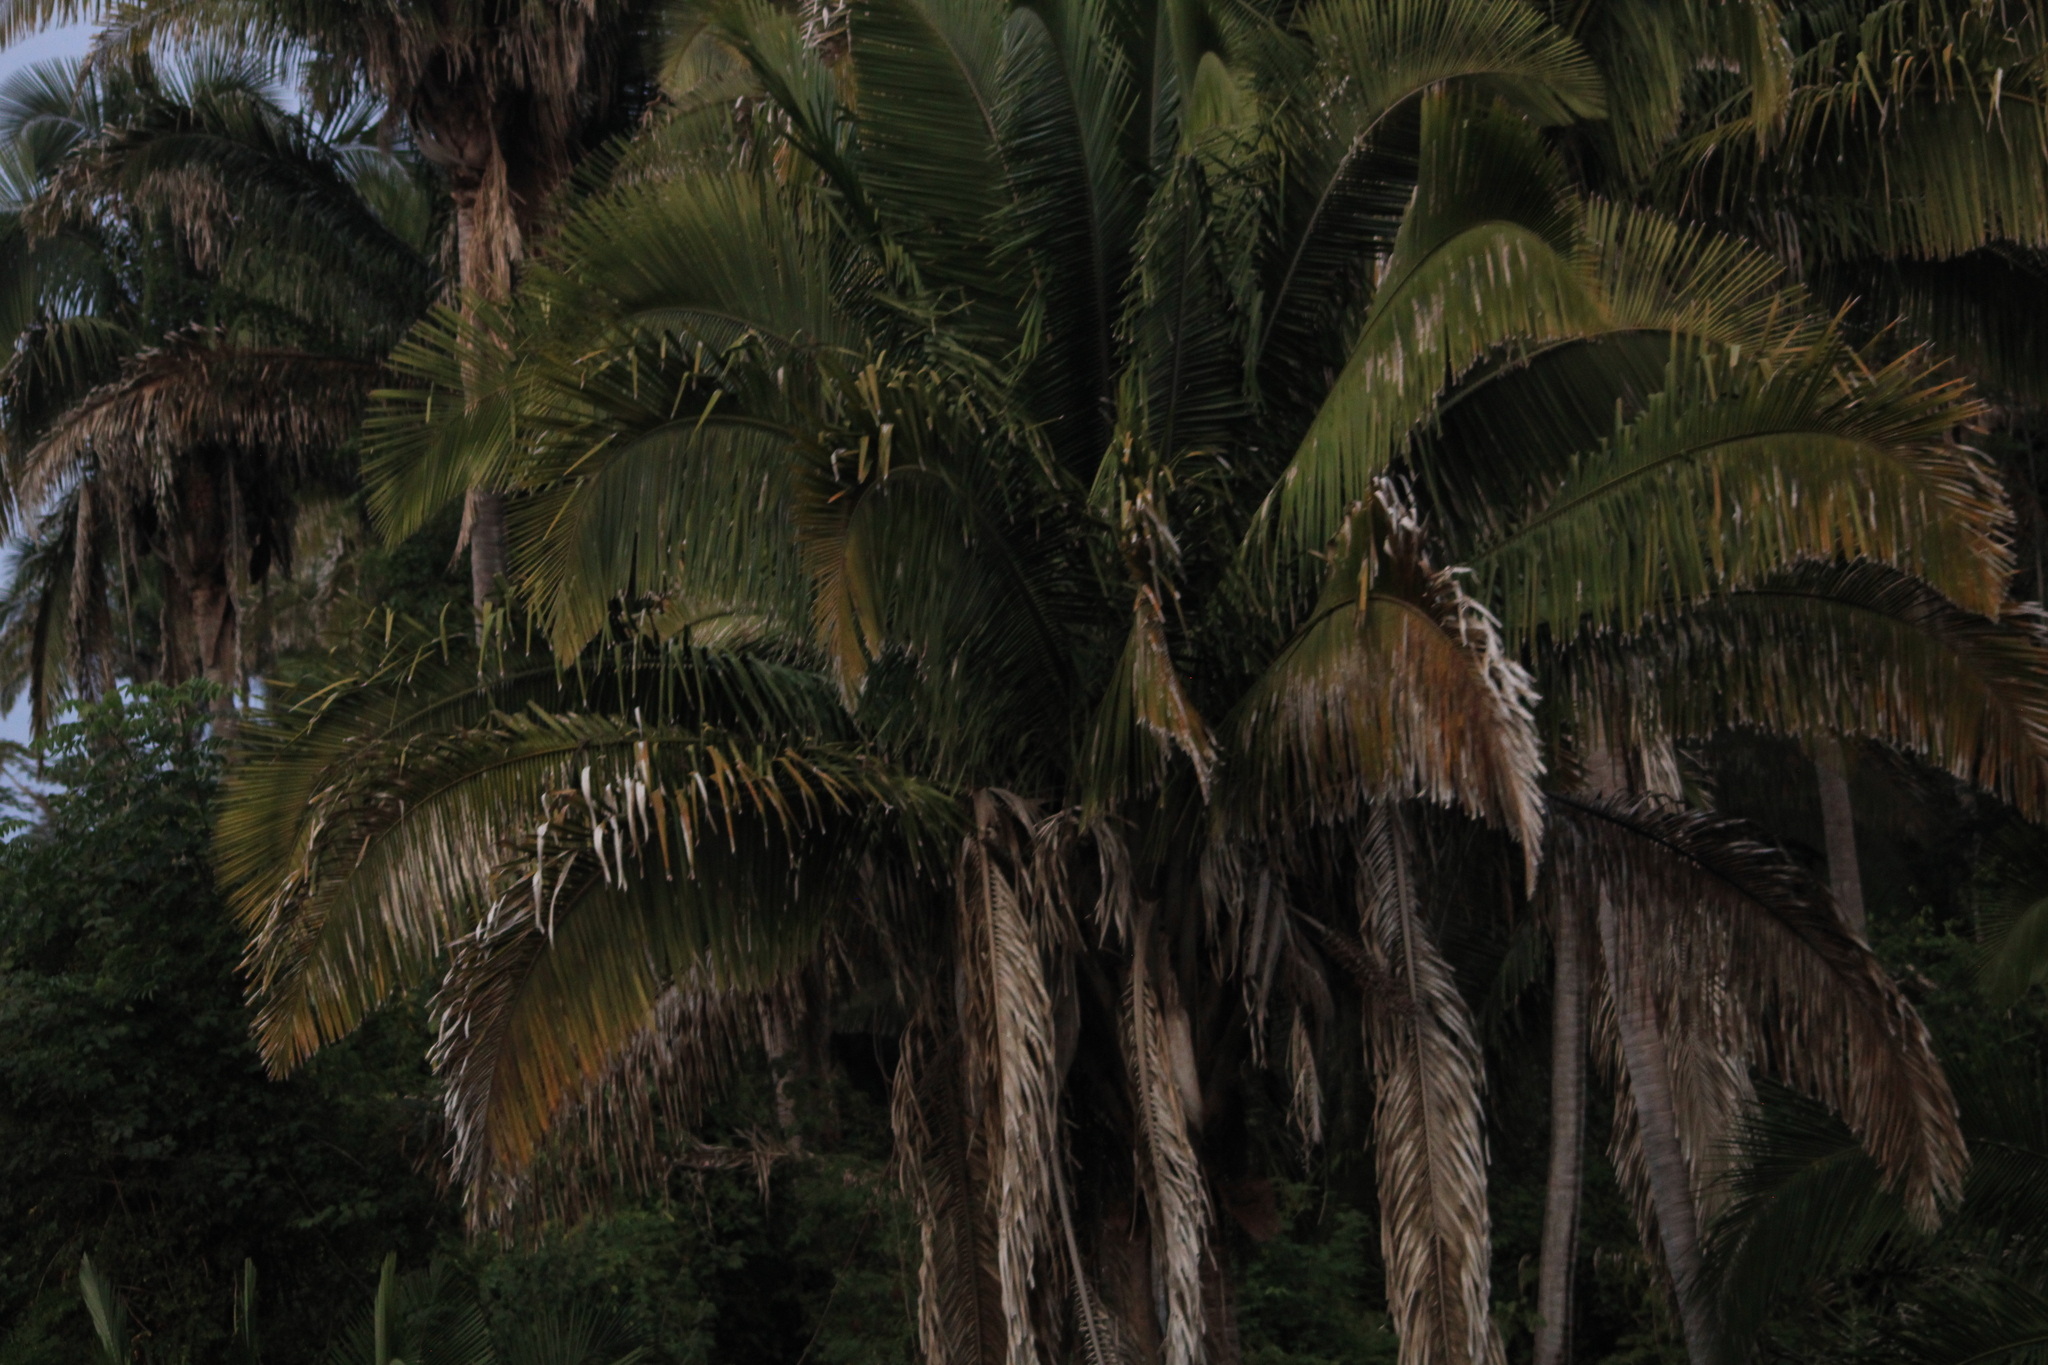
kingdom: Plantae
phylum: Tracheophyta
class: Liliopsida
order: Arecales
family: Arecaceae
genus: Attalea
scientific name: Attalea guacuyule
